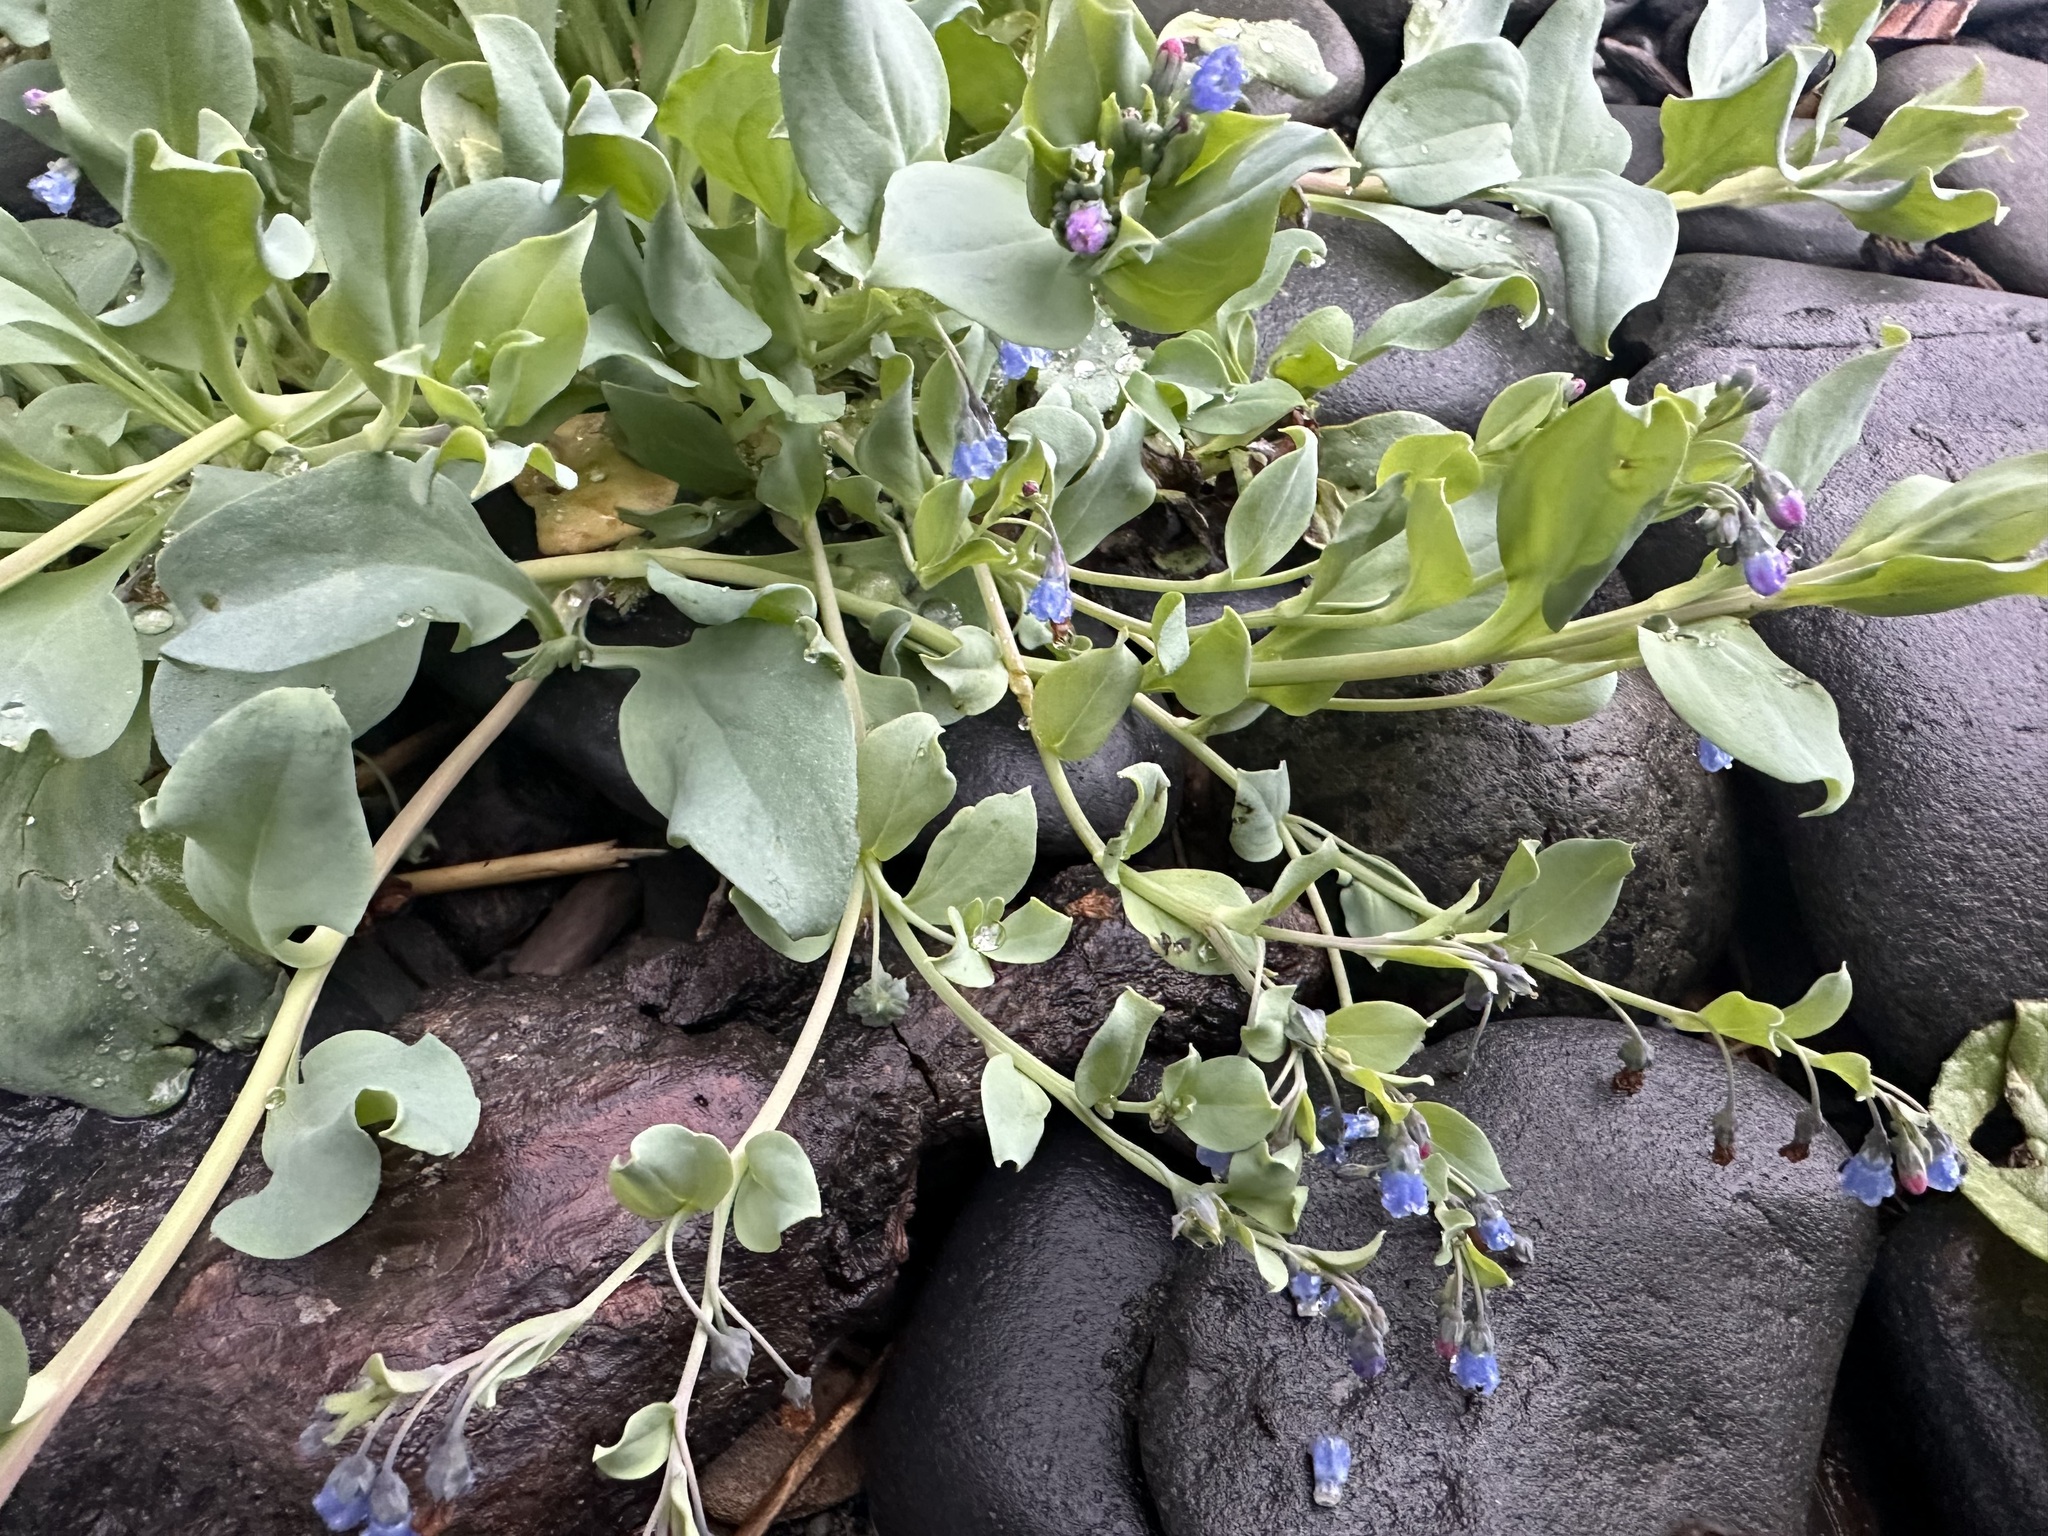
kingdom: Plantae
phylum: Tracheophyta
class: Magnoliopsida
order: Boraginales
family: Boraginaceae
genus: Mertensia
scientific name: Mertensia maritima
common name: Oysterplant
